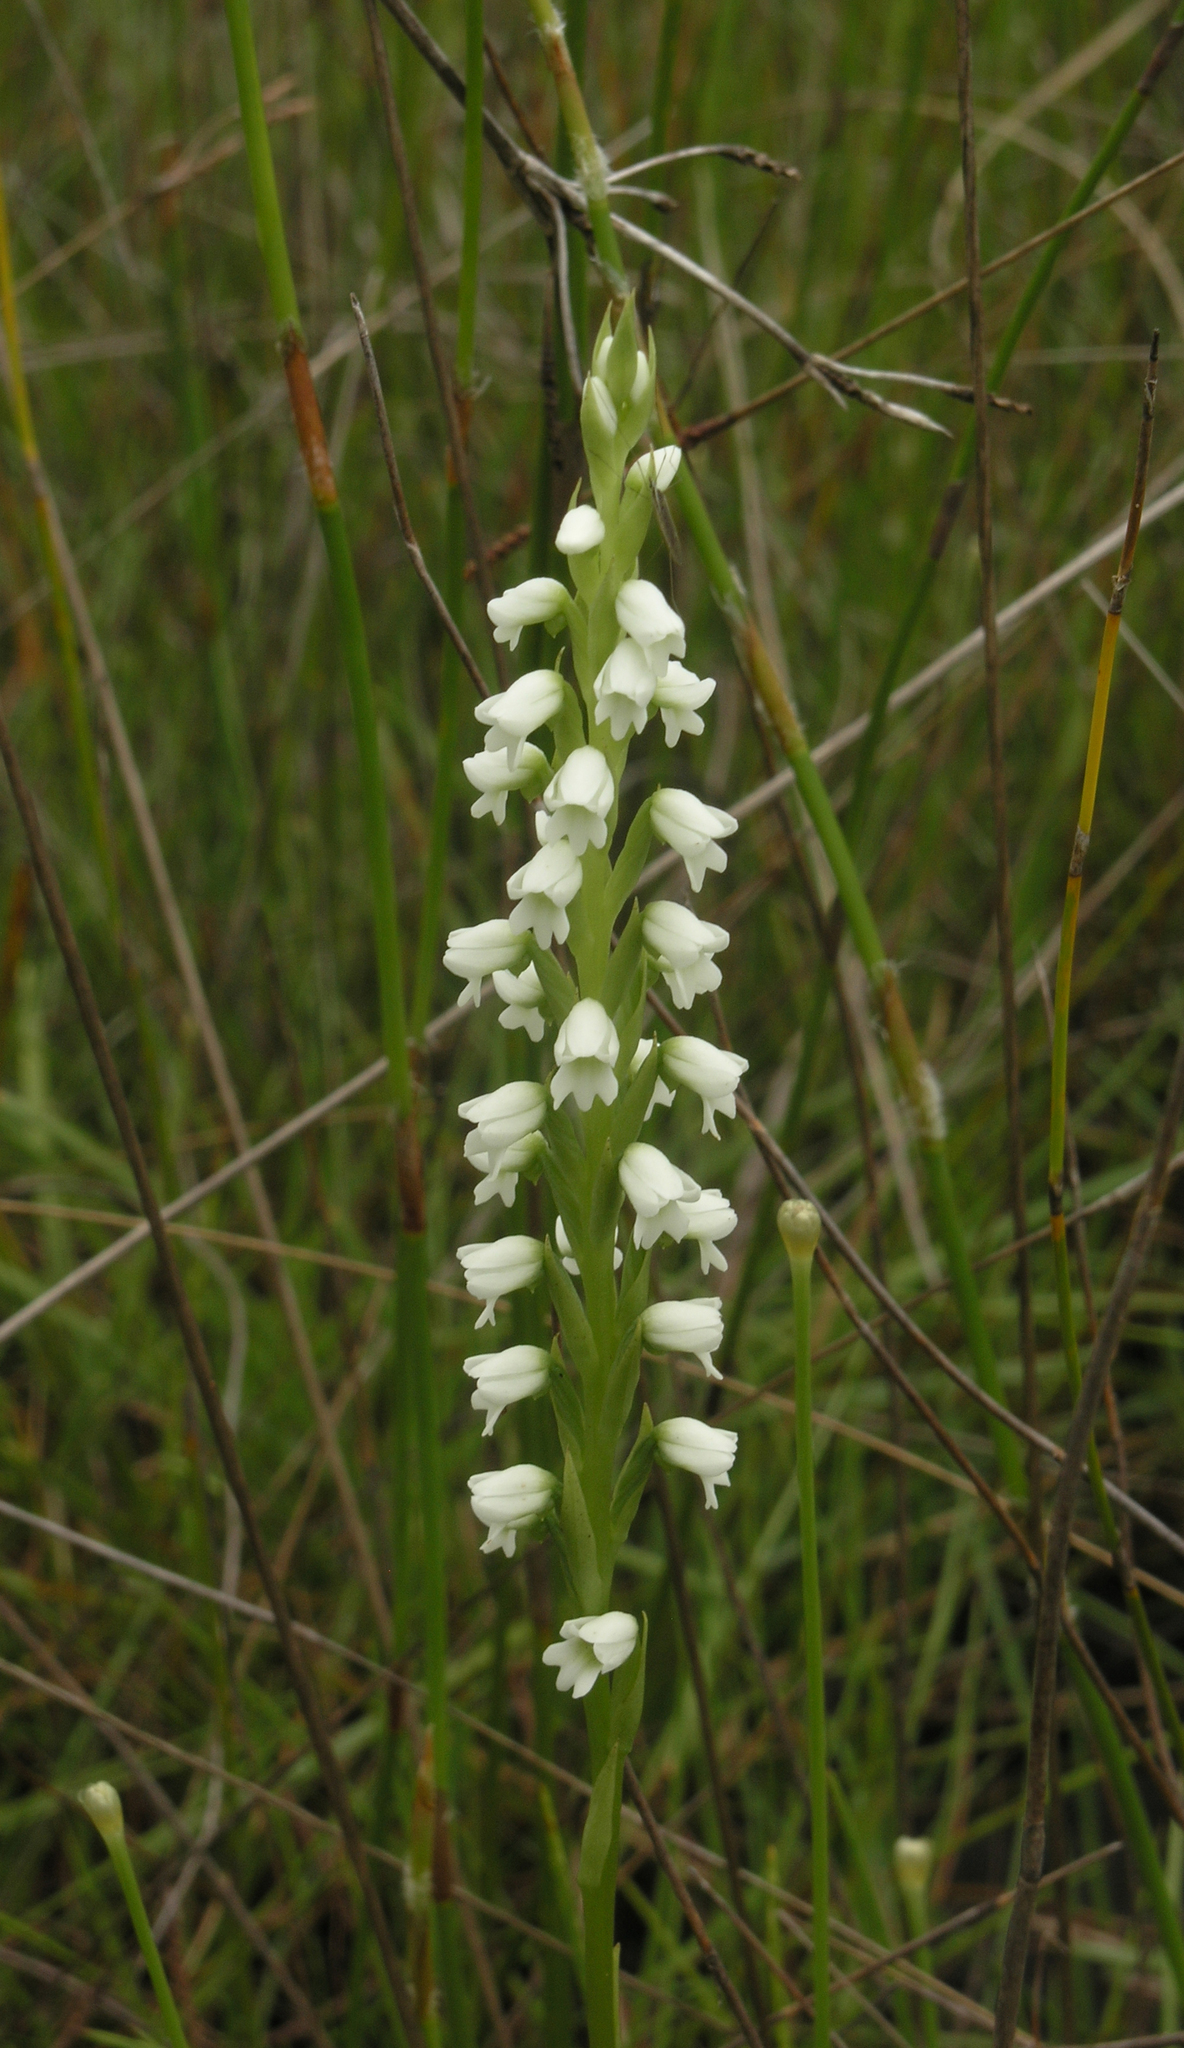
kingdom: Plantae
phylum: Tracheophyta
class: Liliopsida
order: Asparagales
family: Orchidaceae
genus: Peristylus
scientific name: Peristylus lacertifer
